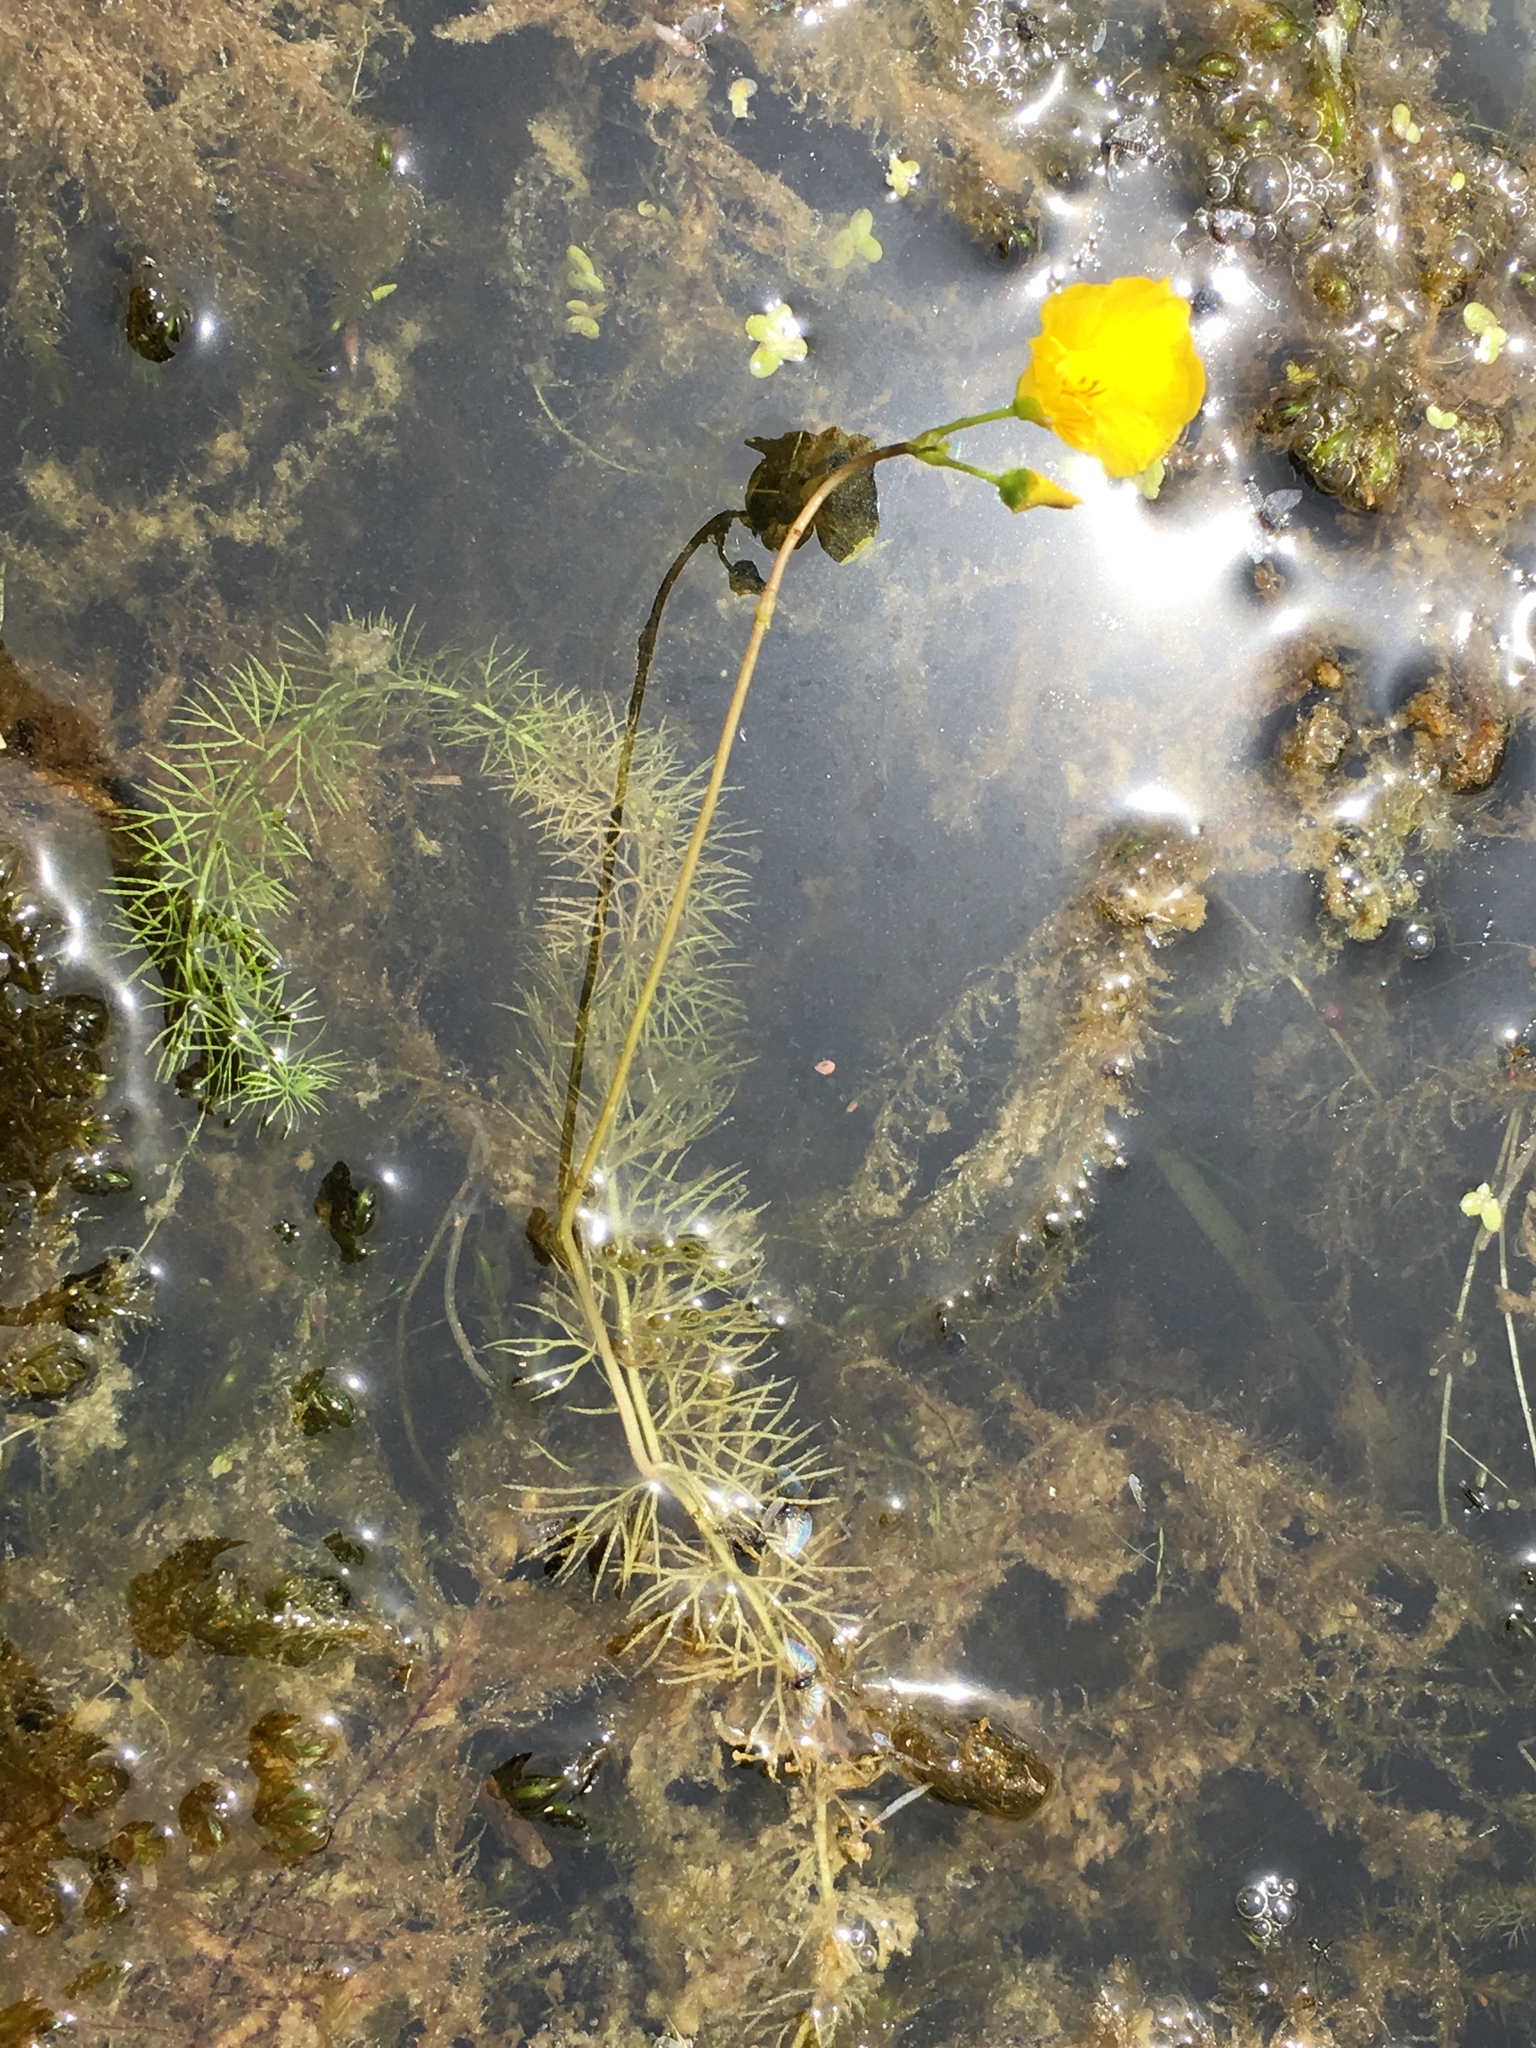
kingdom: Plantae
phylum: Tracheophyta
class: Magnoliopsida
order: Lamiales
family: Lentibulariaceae
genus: Utricularia
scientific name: Utricularia intermedia
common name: Intermediate bladderwort
